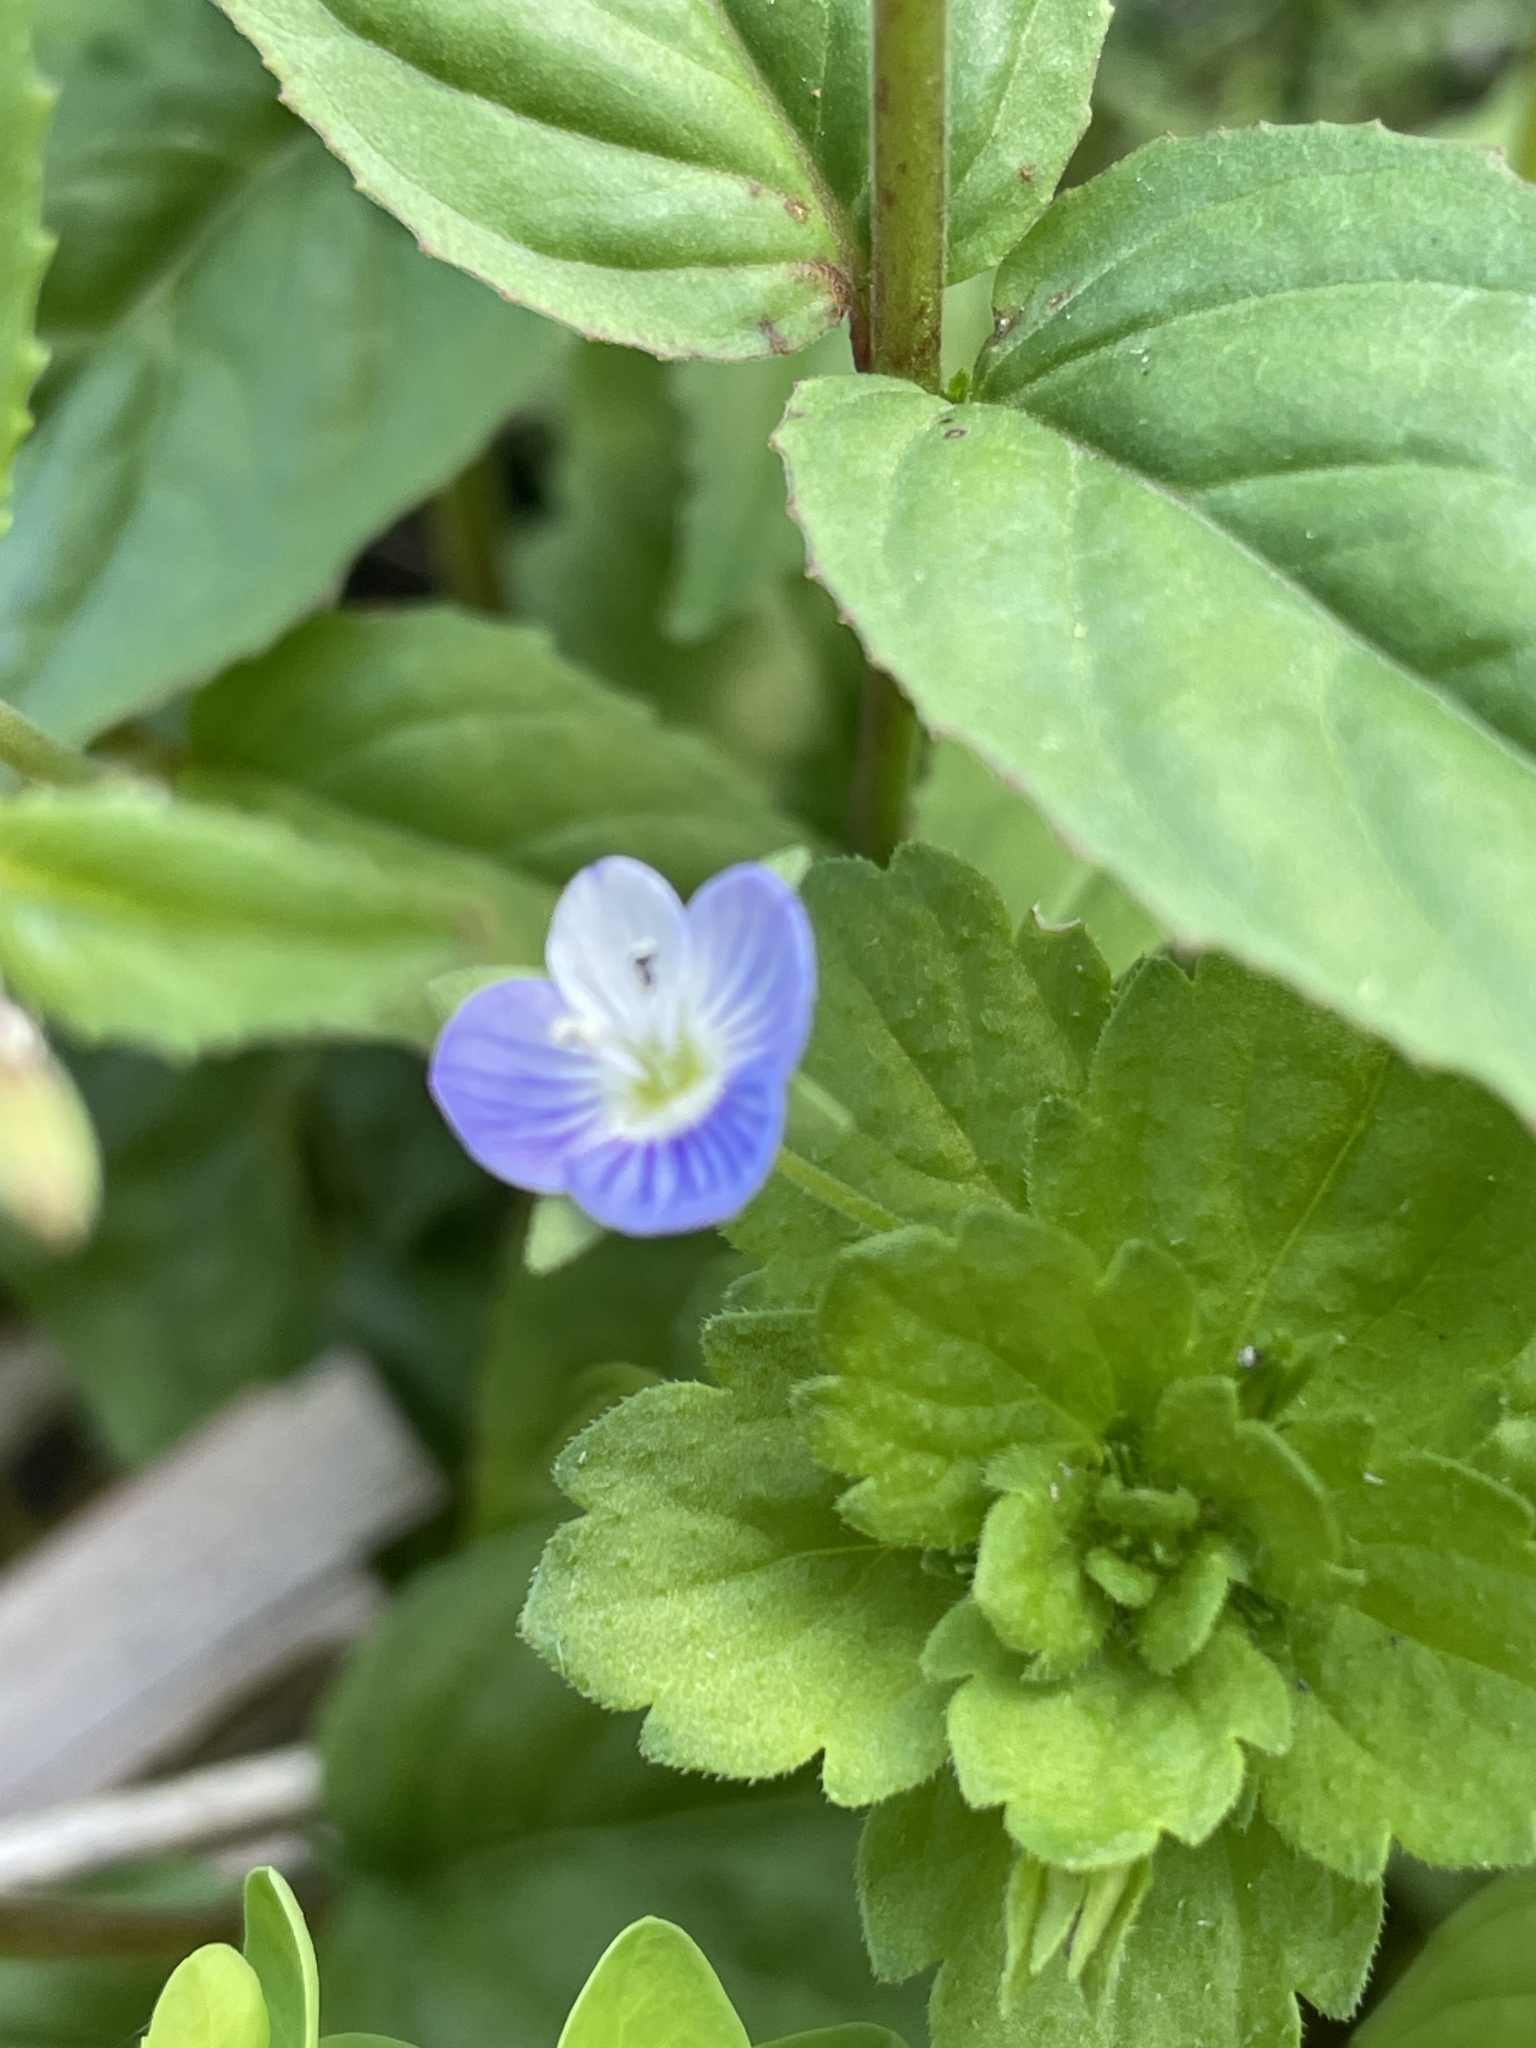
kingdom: Plantae
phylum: Tracheophyta
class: Magnoliopsida
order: Lamiales
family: Plantaginaceae
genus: Veronica
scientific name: Veronica persica
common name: Common field-speedwell
